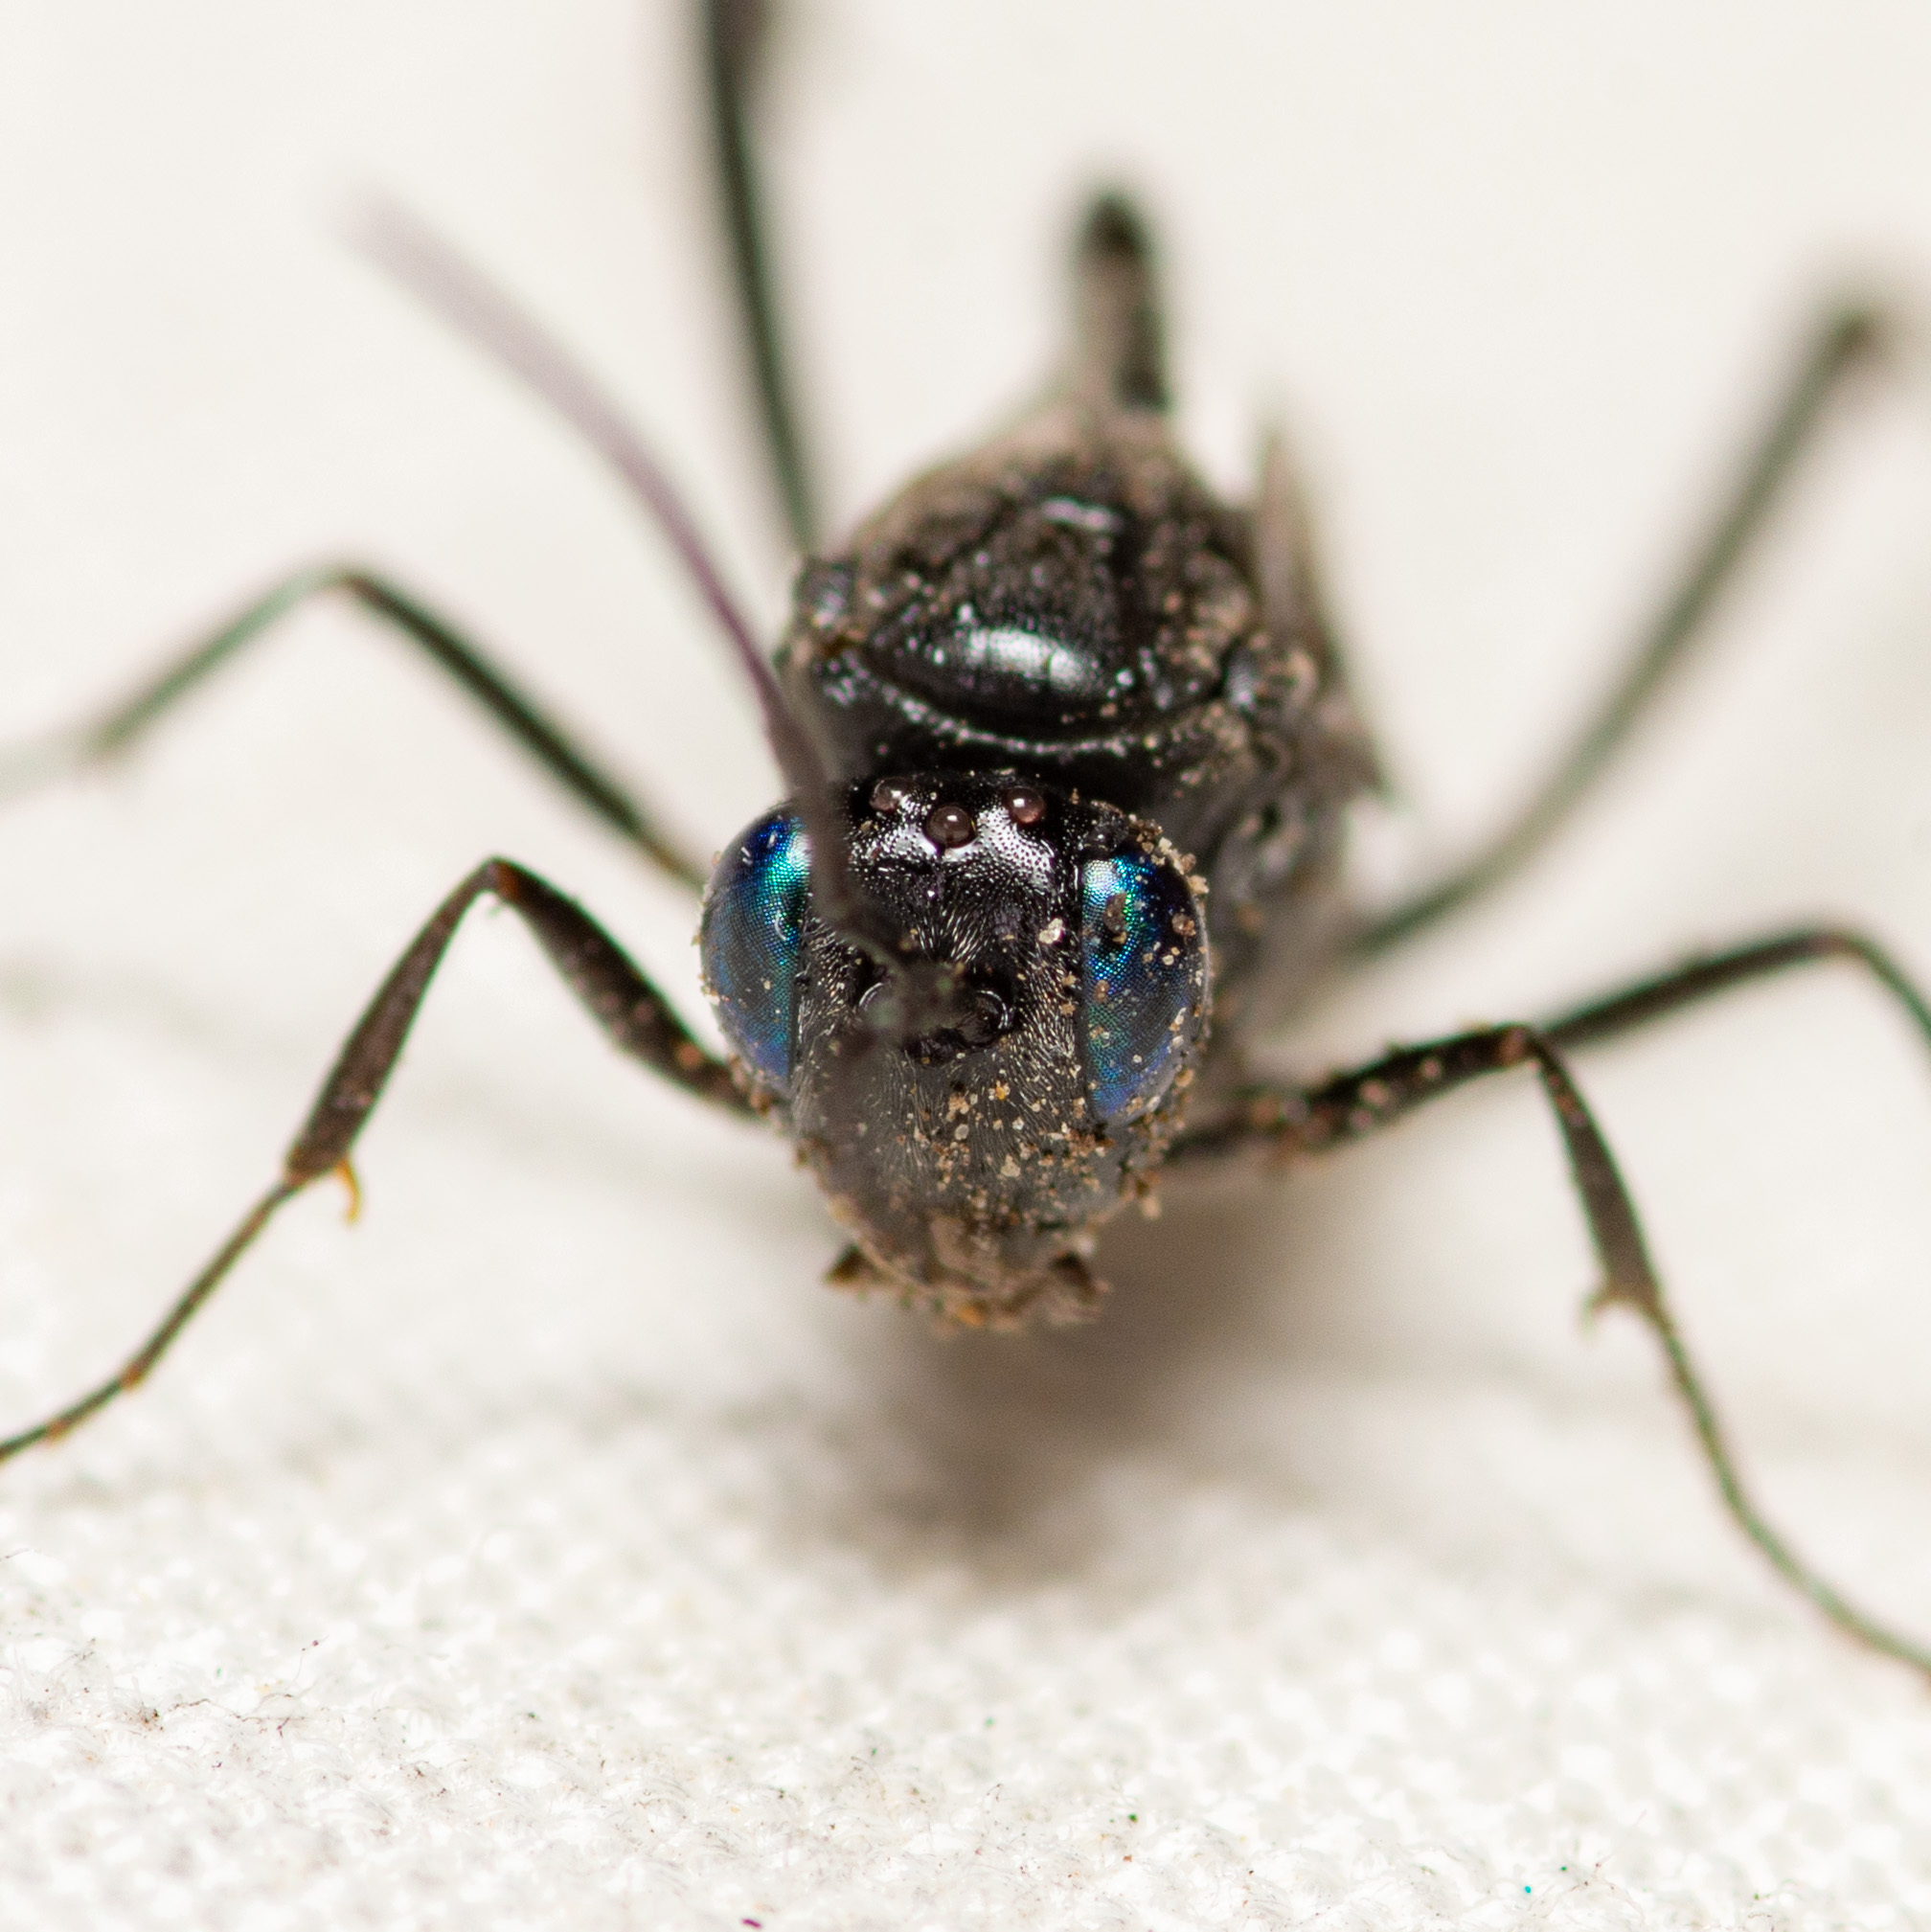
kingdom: Animalia
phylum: Arthropoda
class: Insecta
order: Hymenoptera
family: Evaniidae
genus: Evania
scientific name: Evania appendigaster
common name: Ensign wasp
